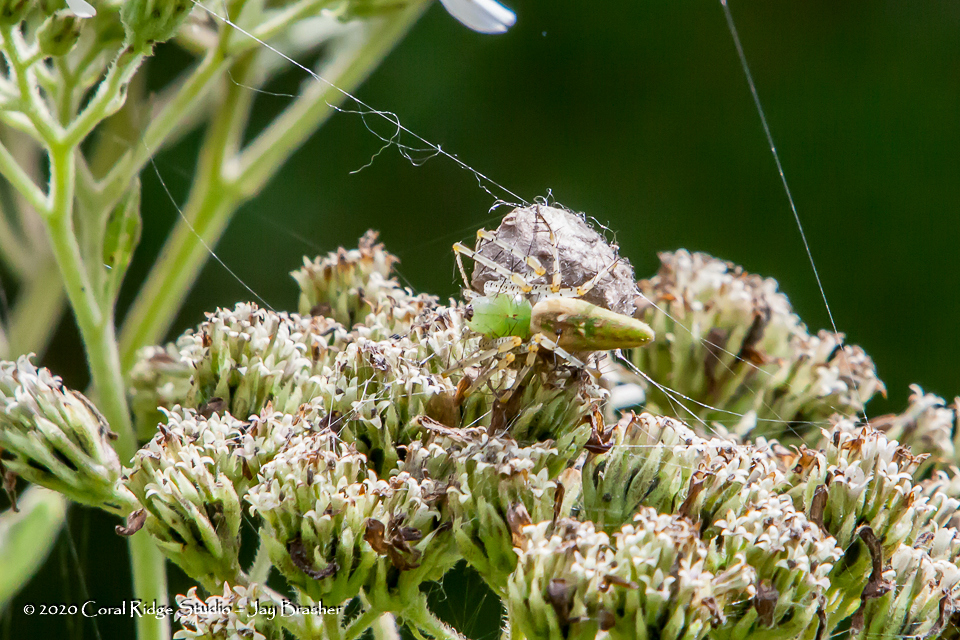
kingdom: Animalia
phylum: Arthropoda
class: Arachnida
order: Araneae
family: Oxyopidae
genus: Peucetia
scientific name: Peucetia viridans
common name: Lynx spiders
